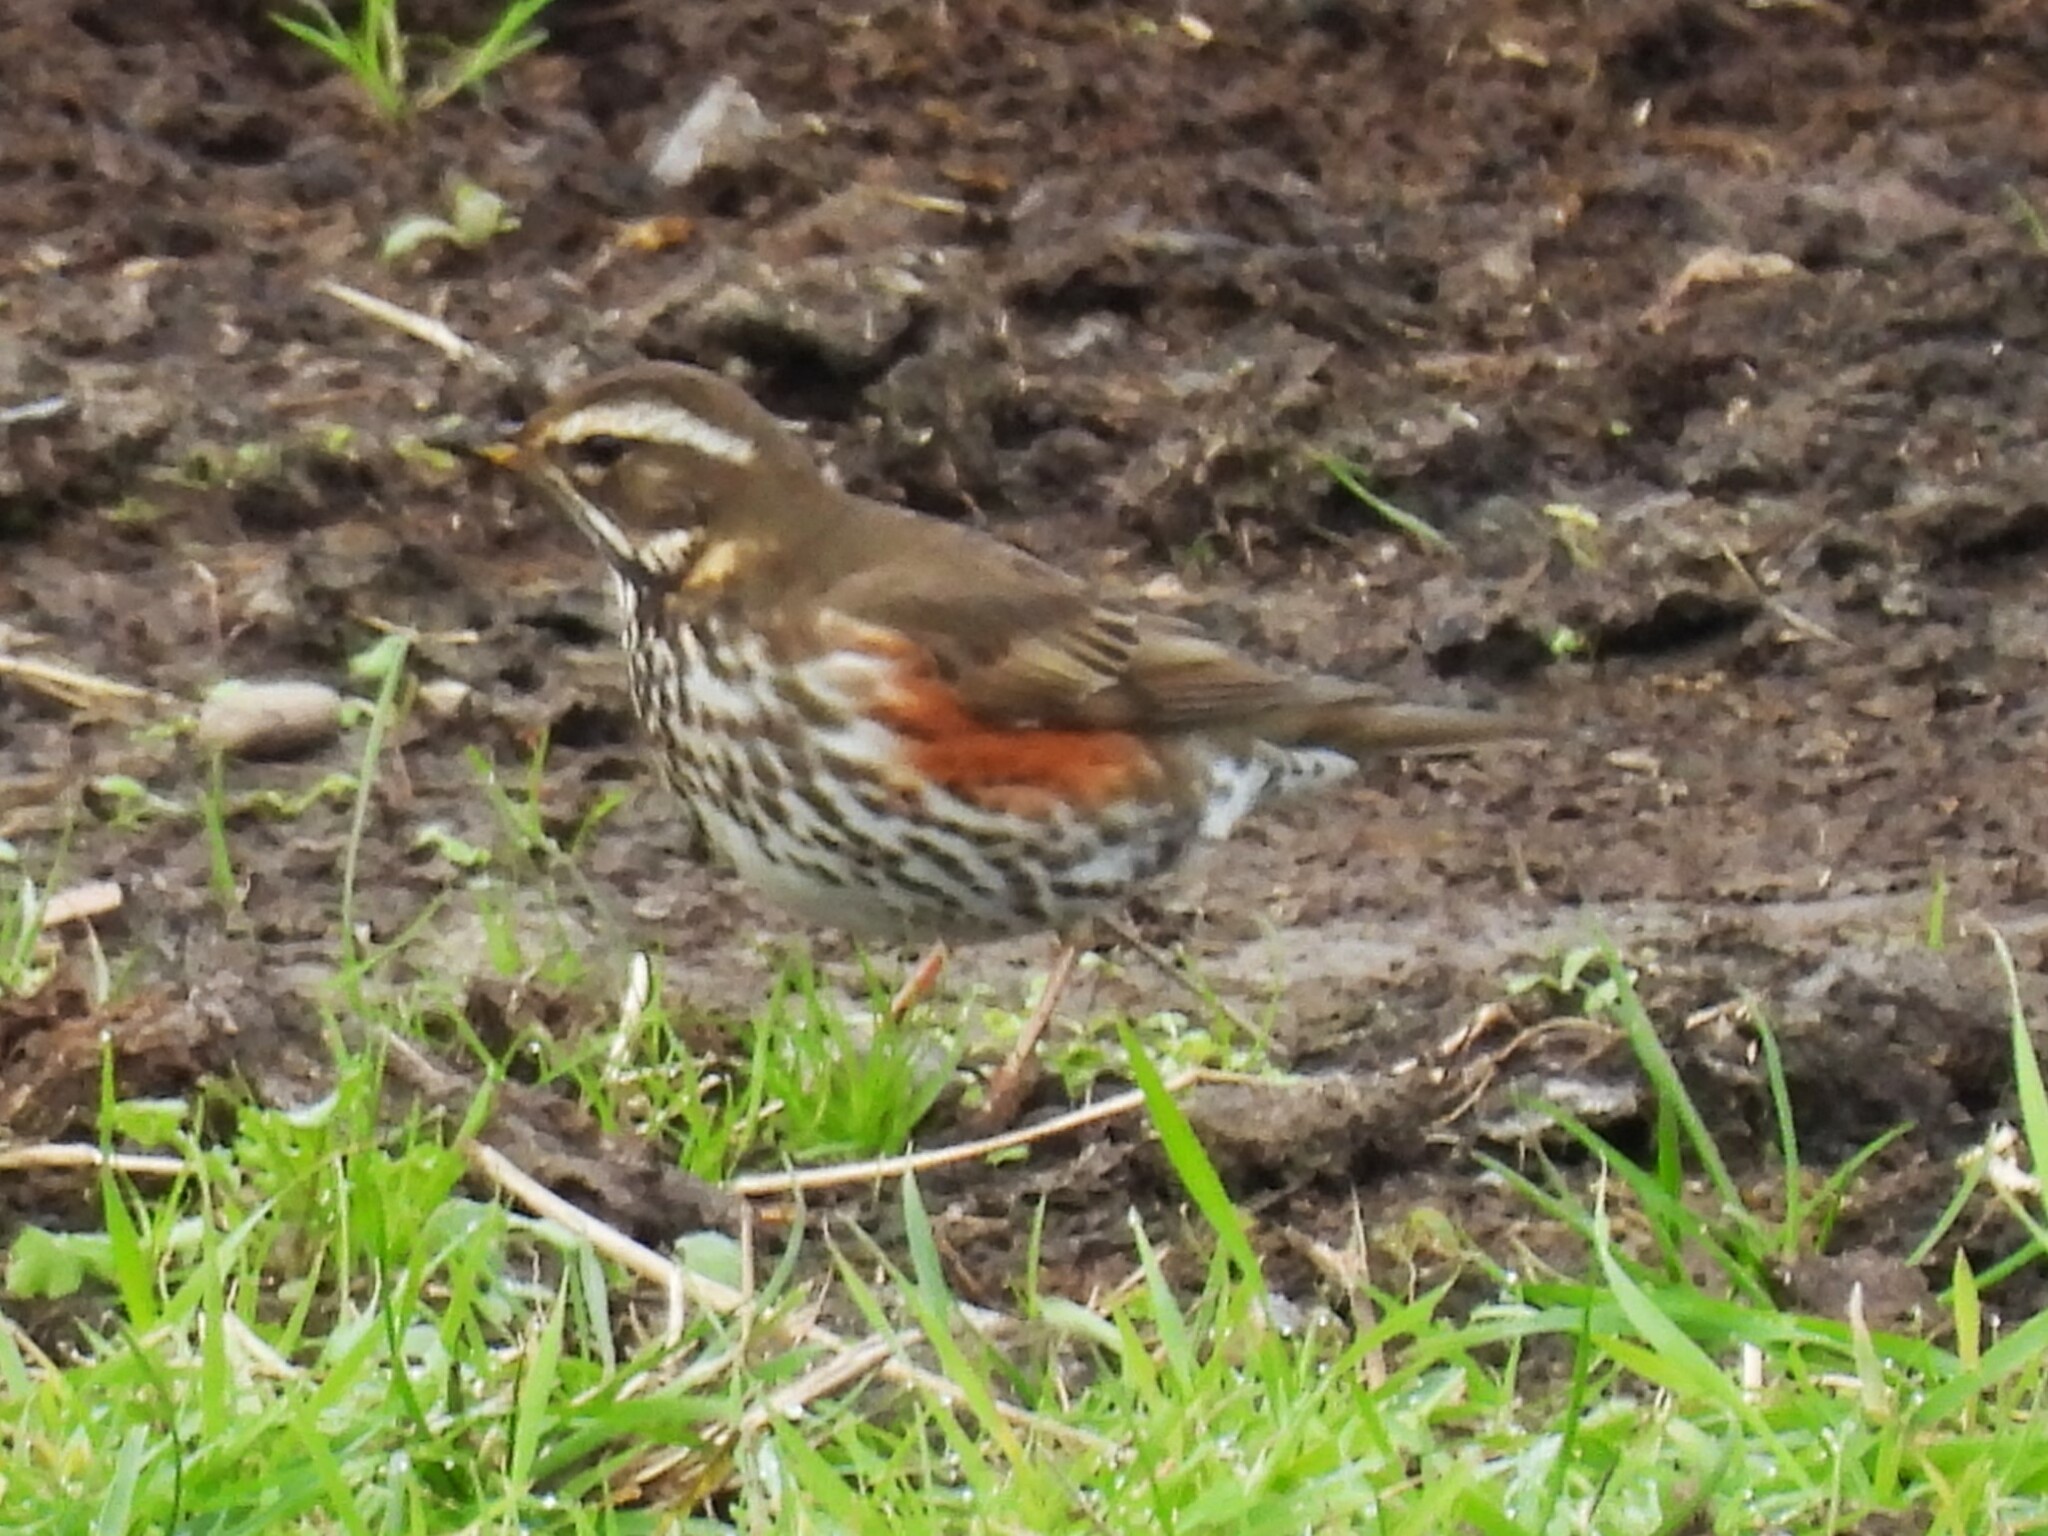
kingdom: Animalia
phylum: Chordata
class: Aves
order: Passeriformes
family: Turdidae
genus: Turdus
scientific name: Turdus iliacus
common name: Redwing
